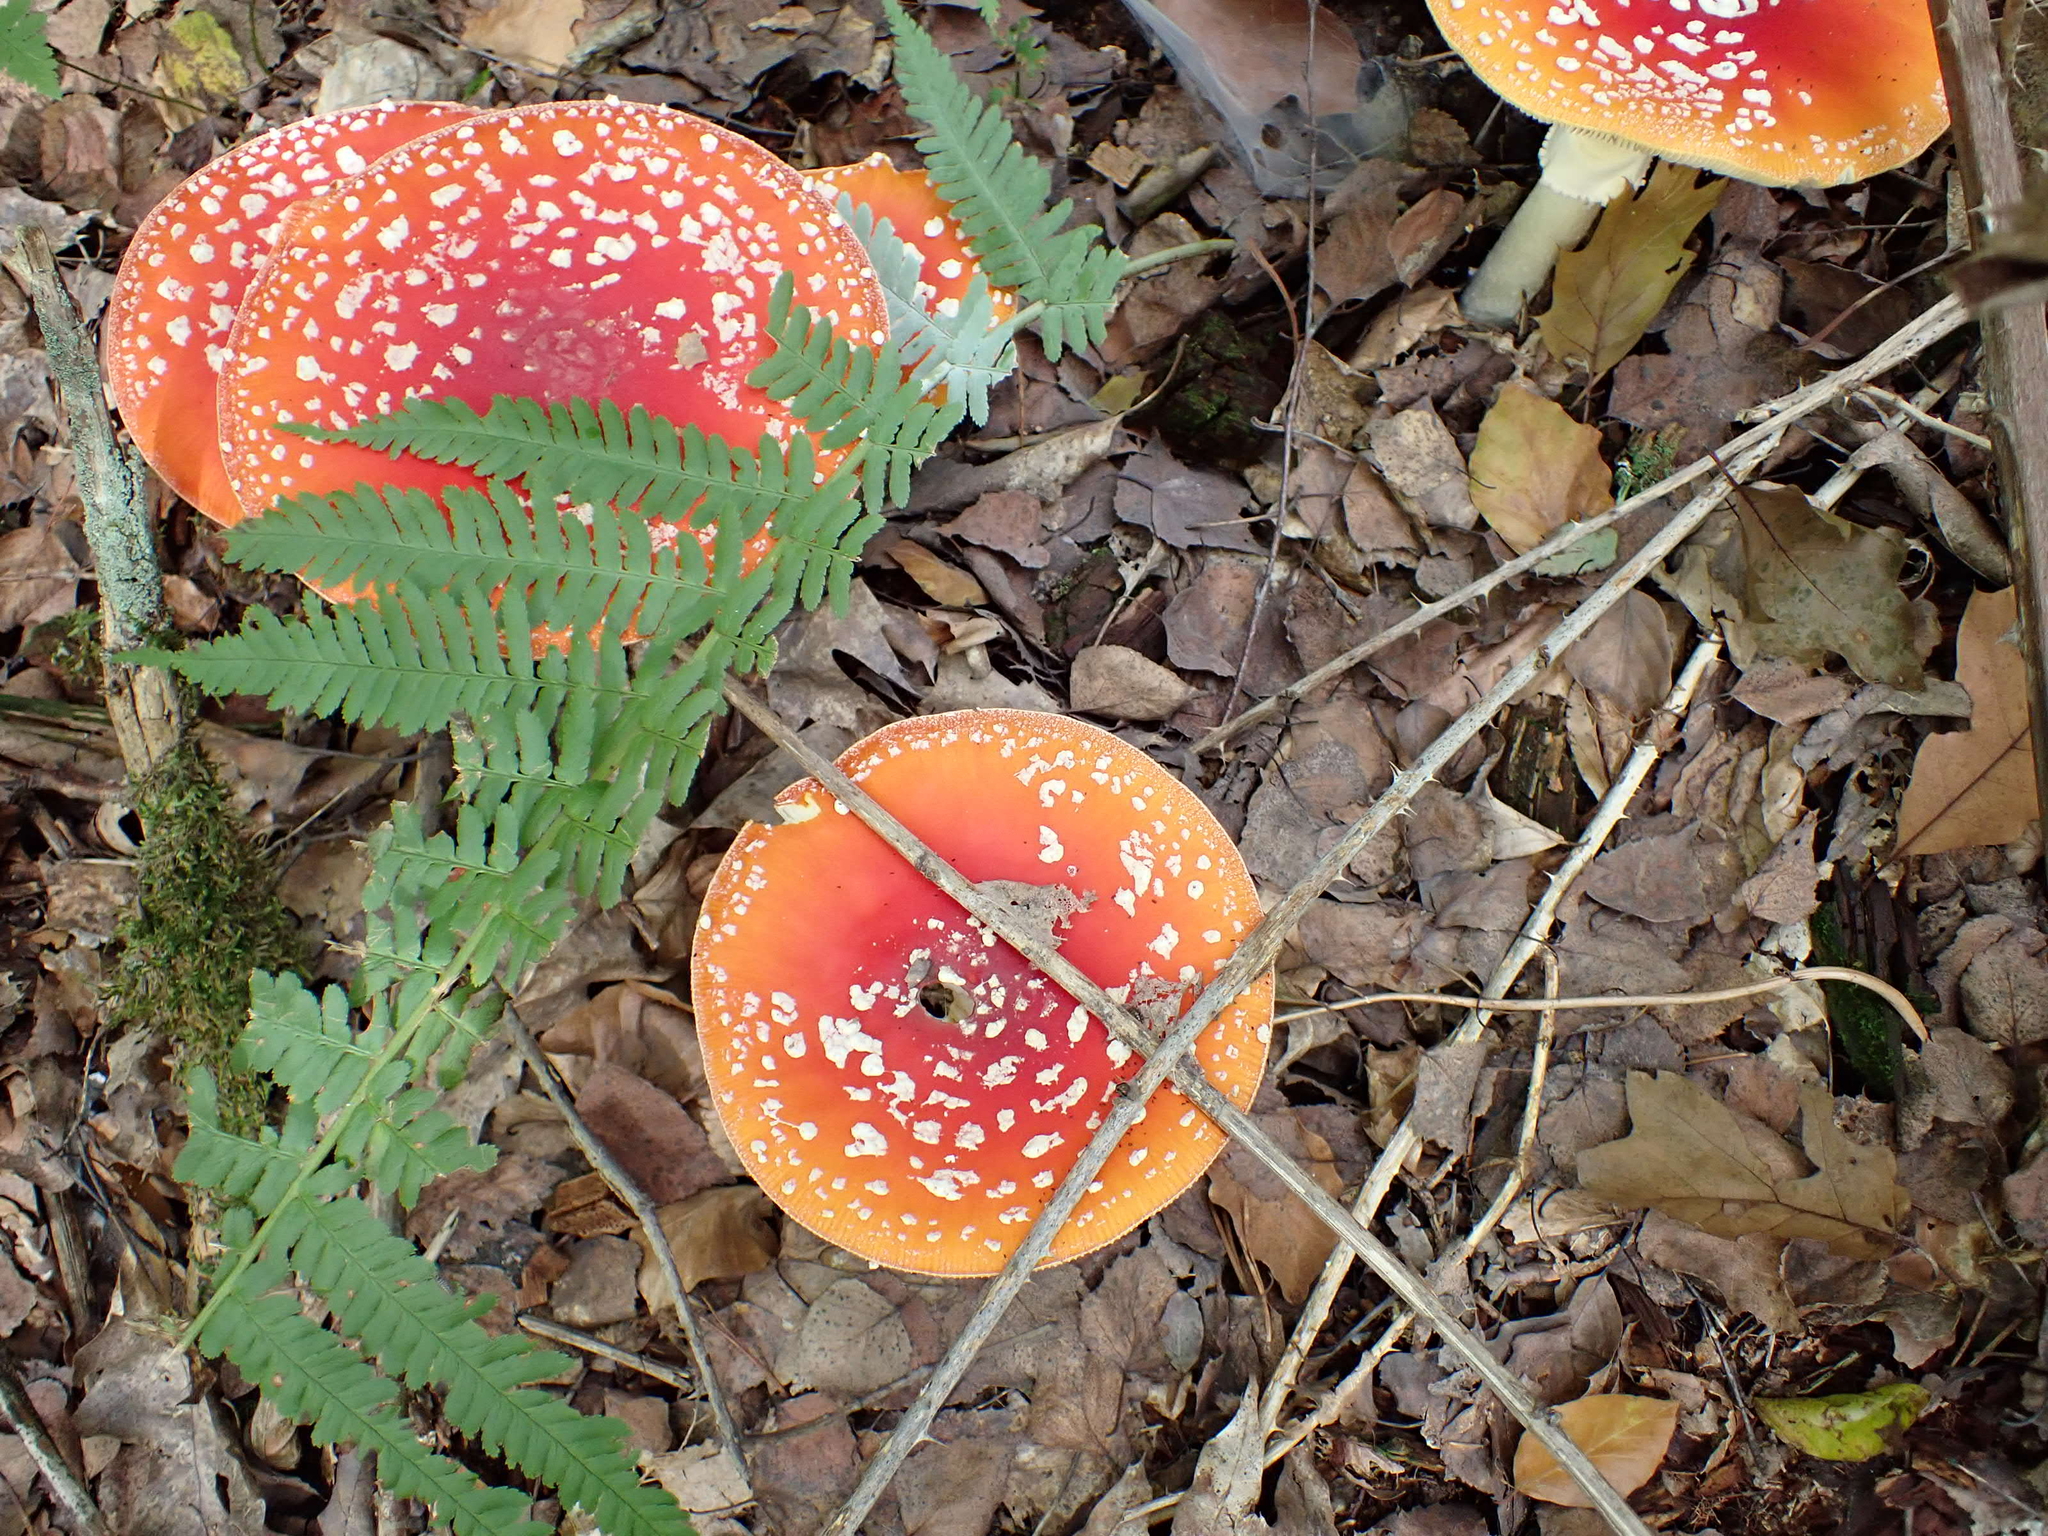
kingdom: Fungi
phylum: Basidiomycota
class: Agaricomycetes
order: Agaricales
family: Amanitaceae
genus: Amanita
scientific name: Amanita muscaria
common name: Fly agaric
